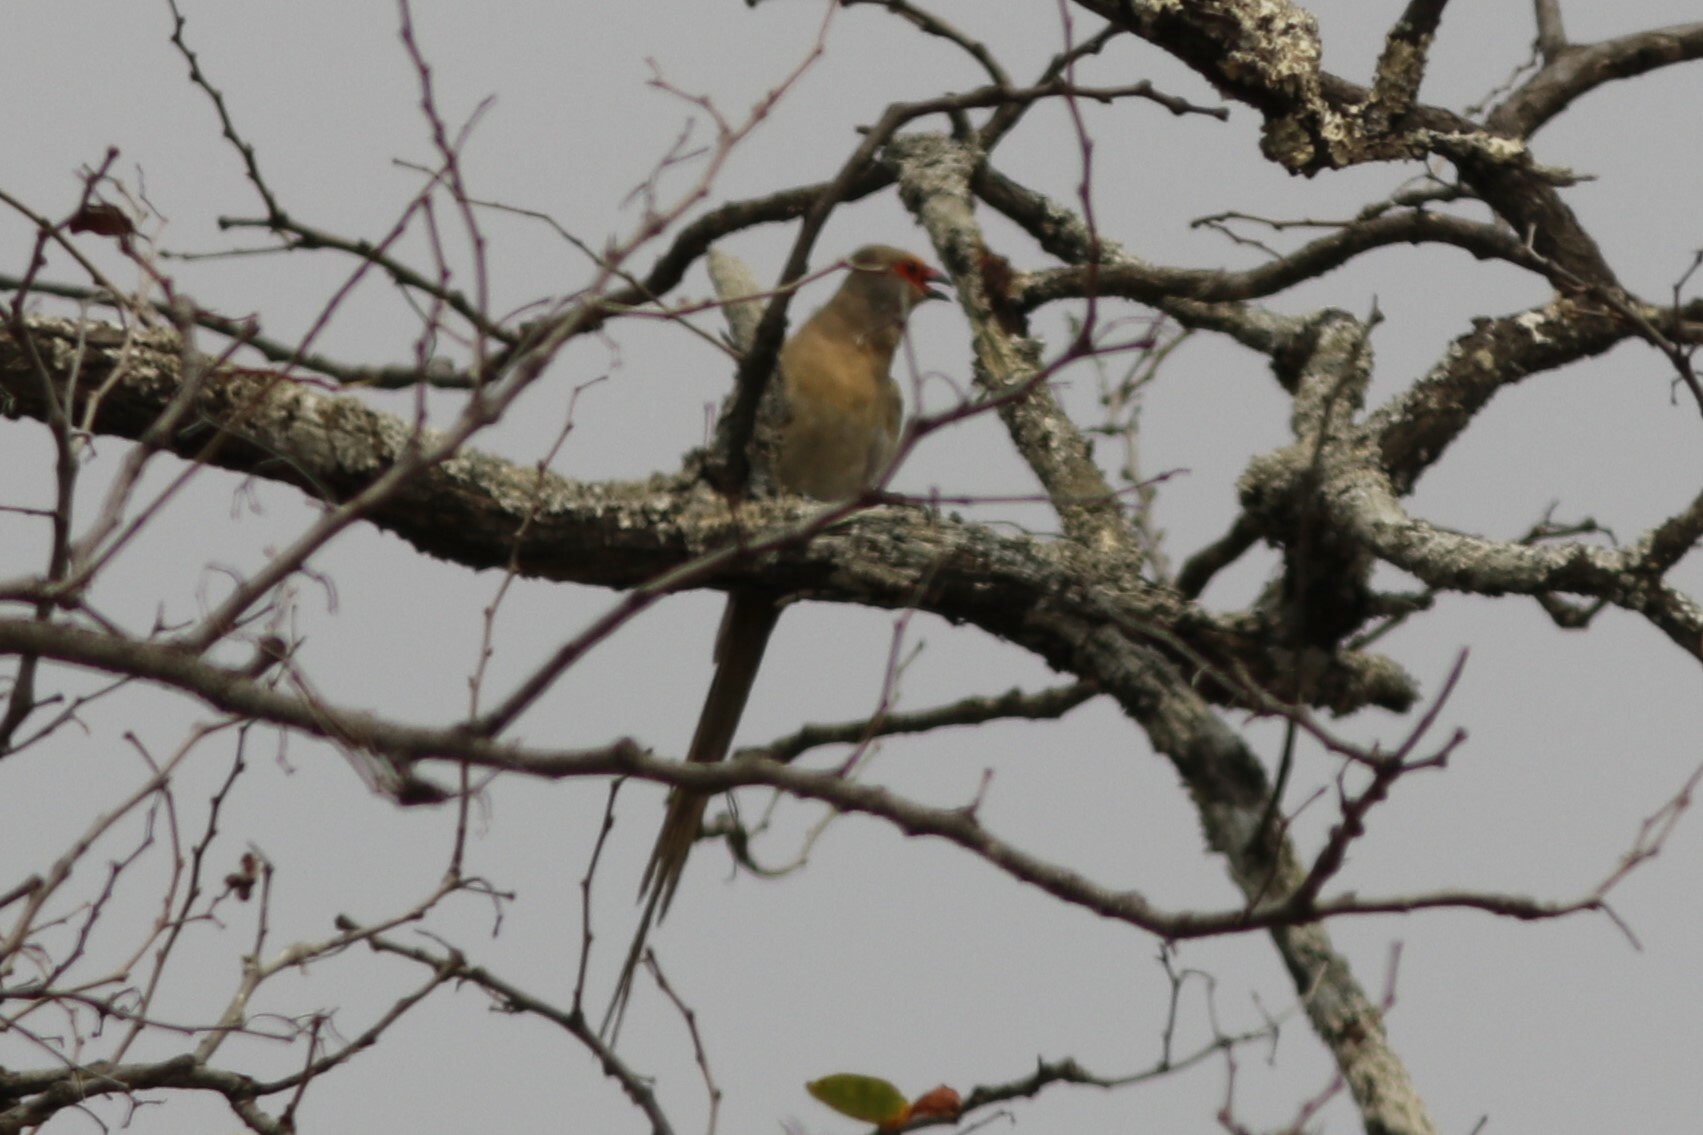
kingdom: Animalia
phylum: Chordata
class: Aves
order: Coliiformes
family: Coliidae
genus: Urocolius
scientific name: Urocolius indicus
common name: Red-faced mousebird
